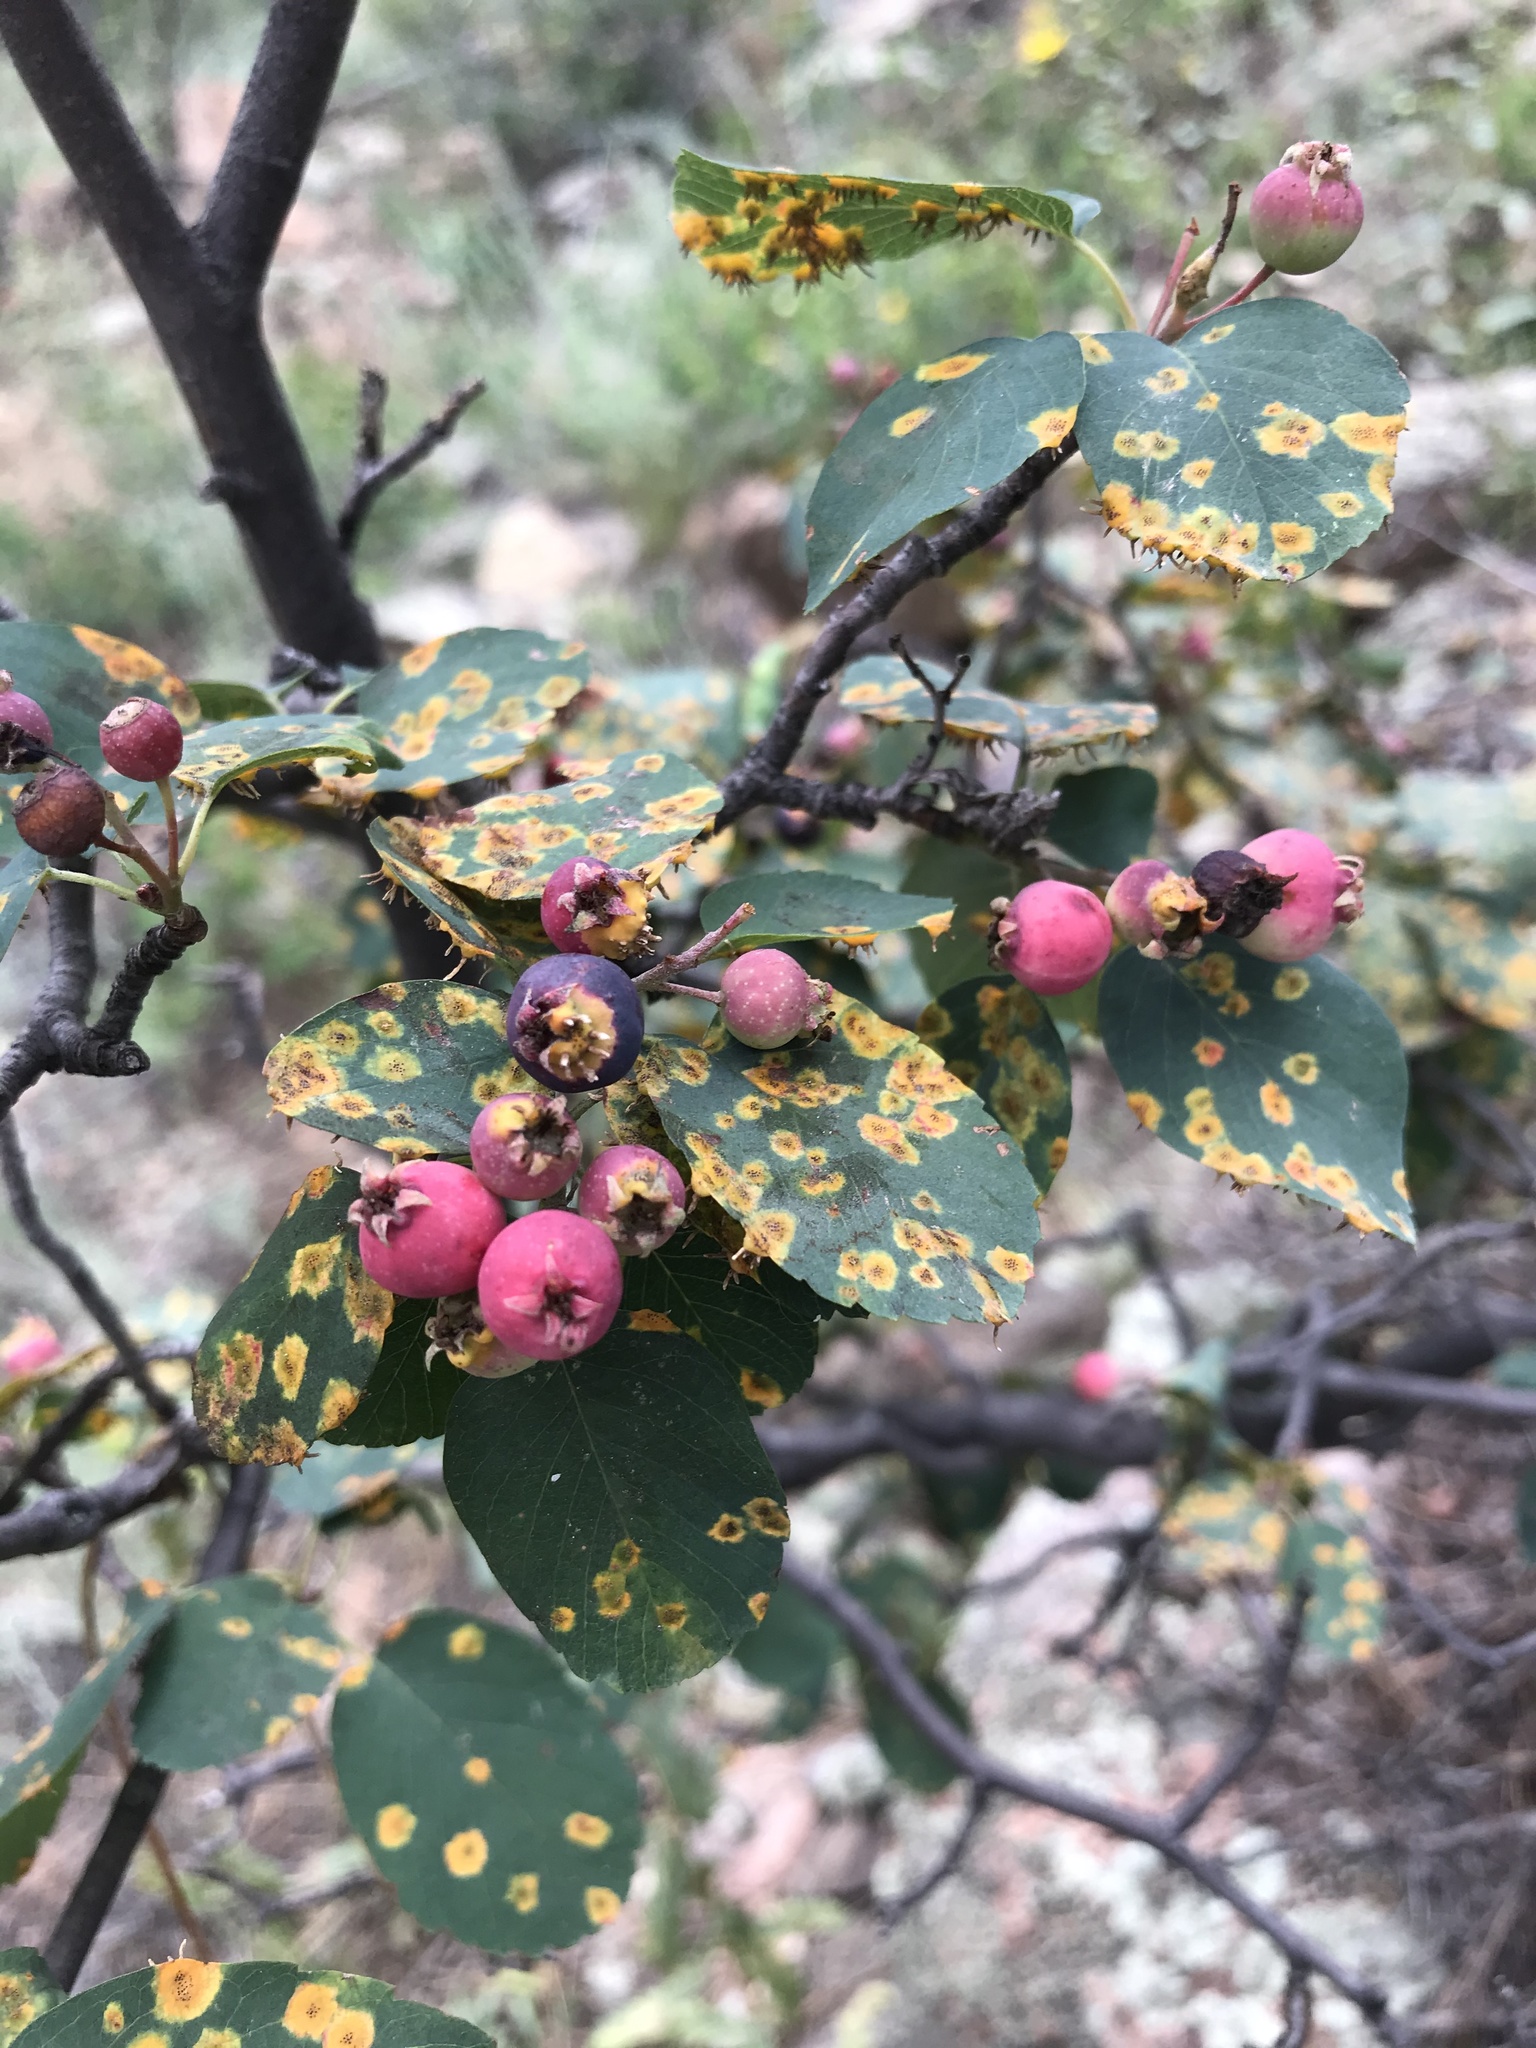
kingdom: Plantae
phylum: Tracheophyta
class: Magnoliopsida
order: Rosales
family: Rosaceae
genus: Amelanchier
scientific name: Amelanchier alnifolia
